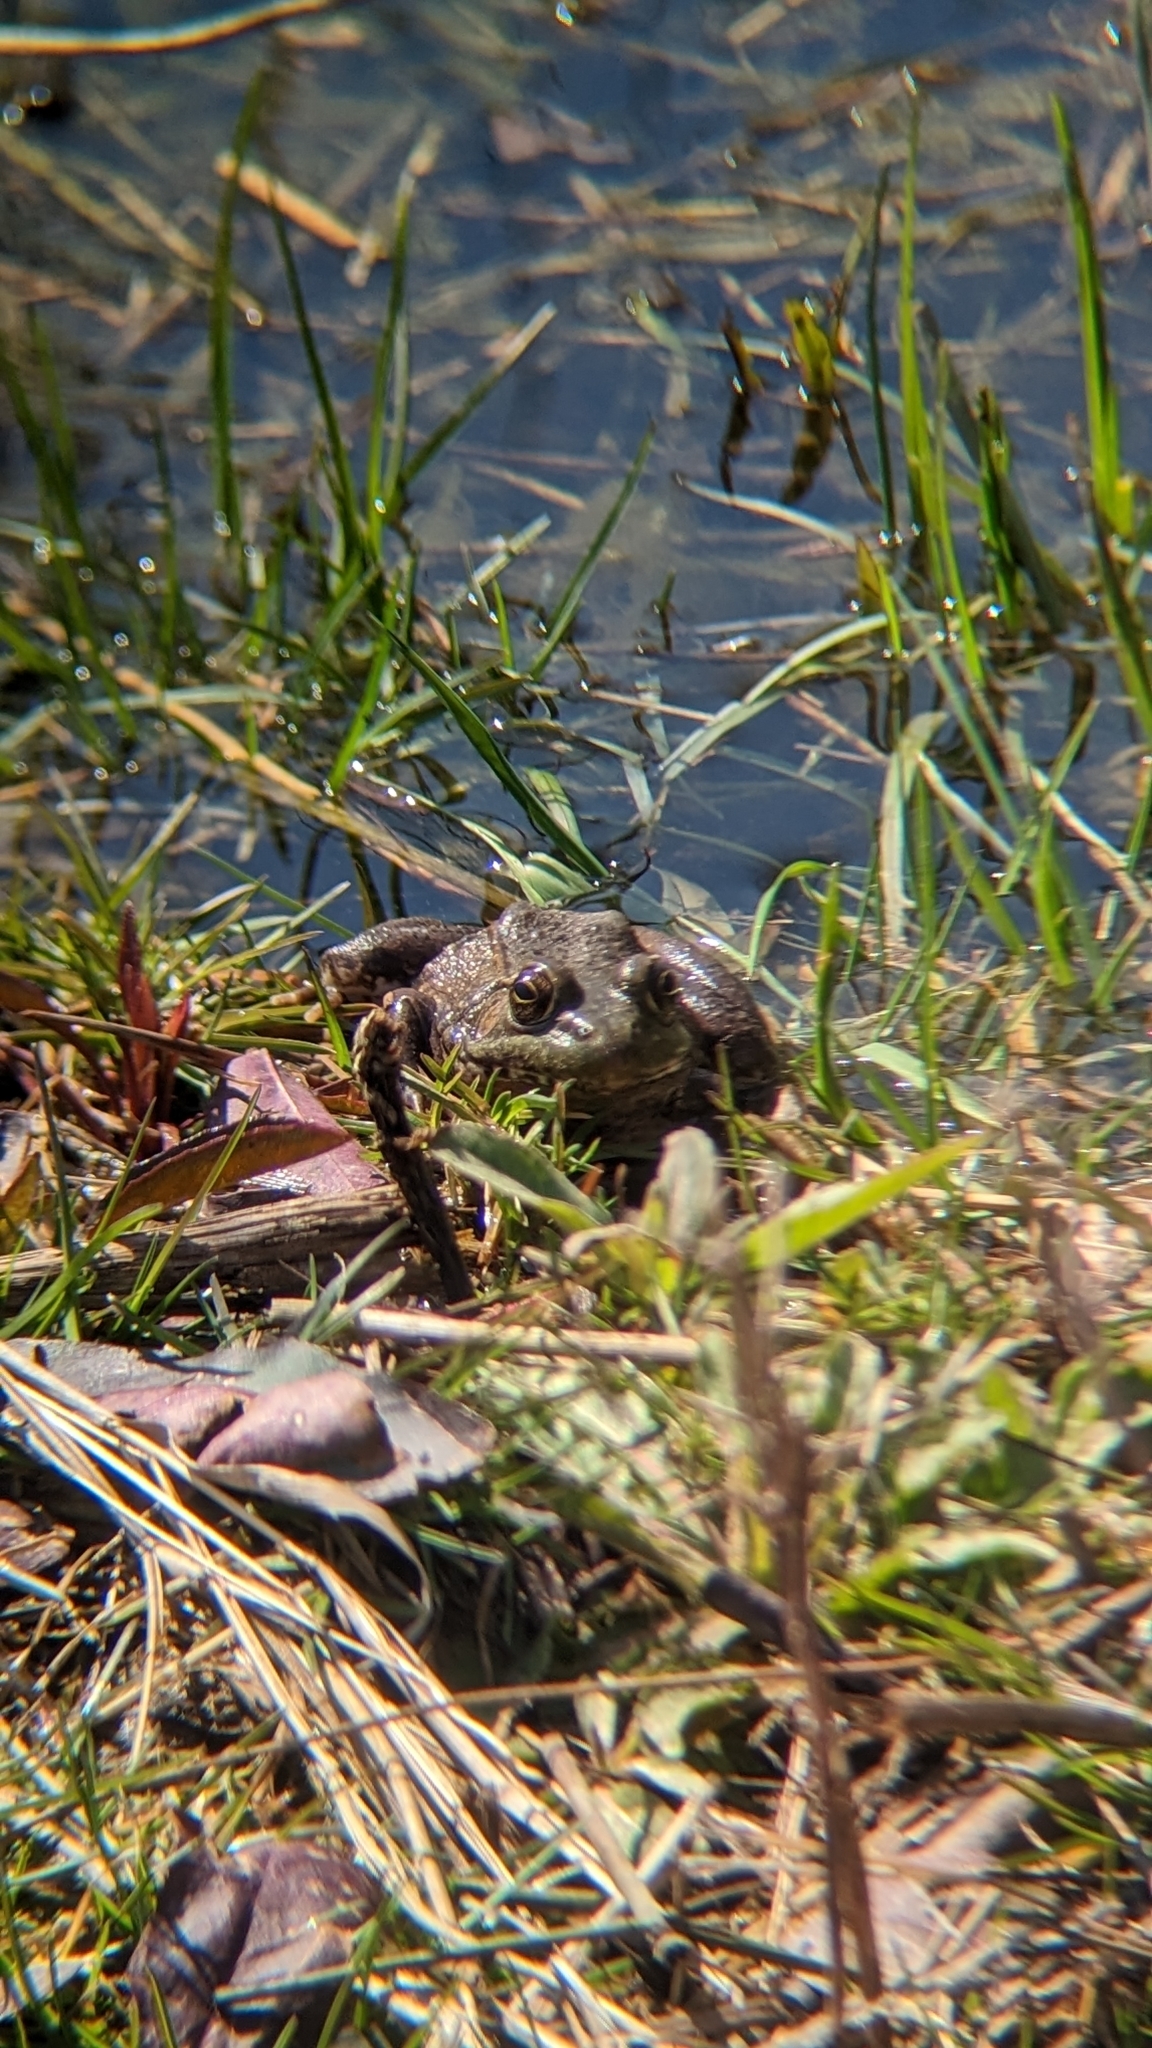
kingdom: Animalia
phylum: Chordata
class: Amphibia
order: Anura
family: Ranidae
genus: Lithobates
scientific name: Lithobates clamitans
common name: Green frog
